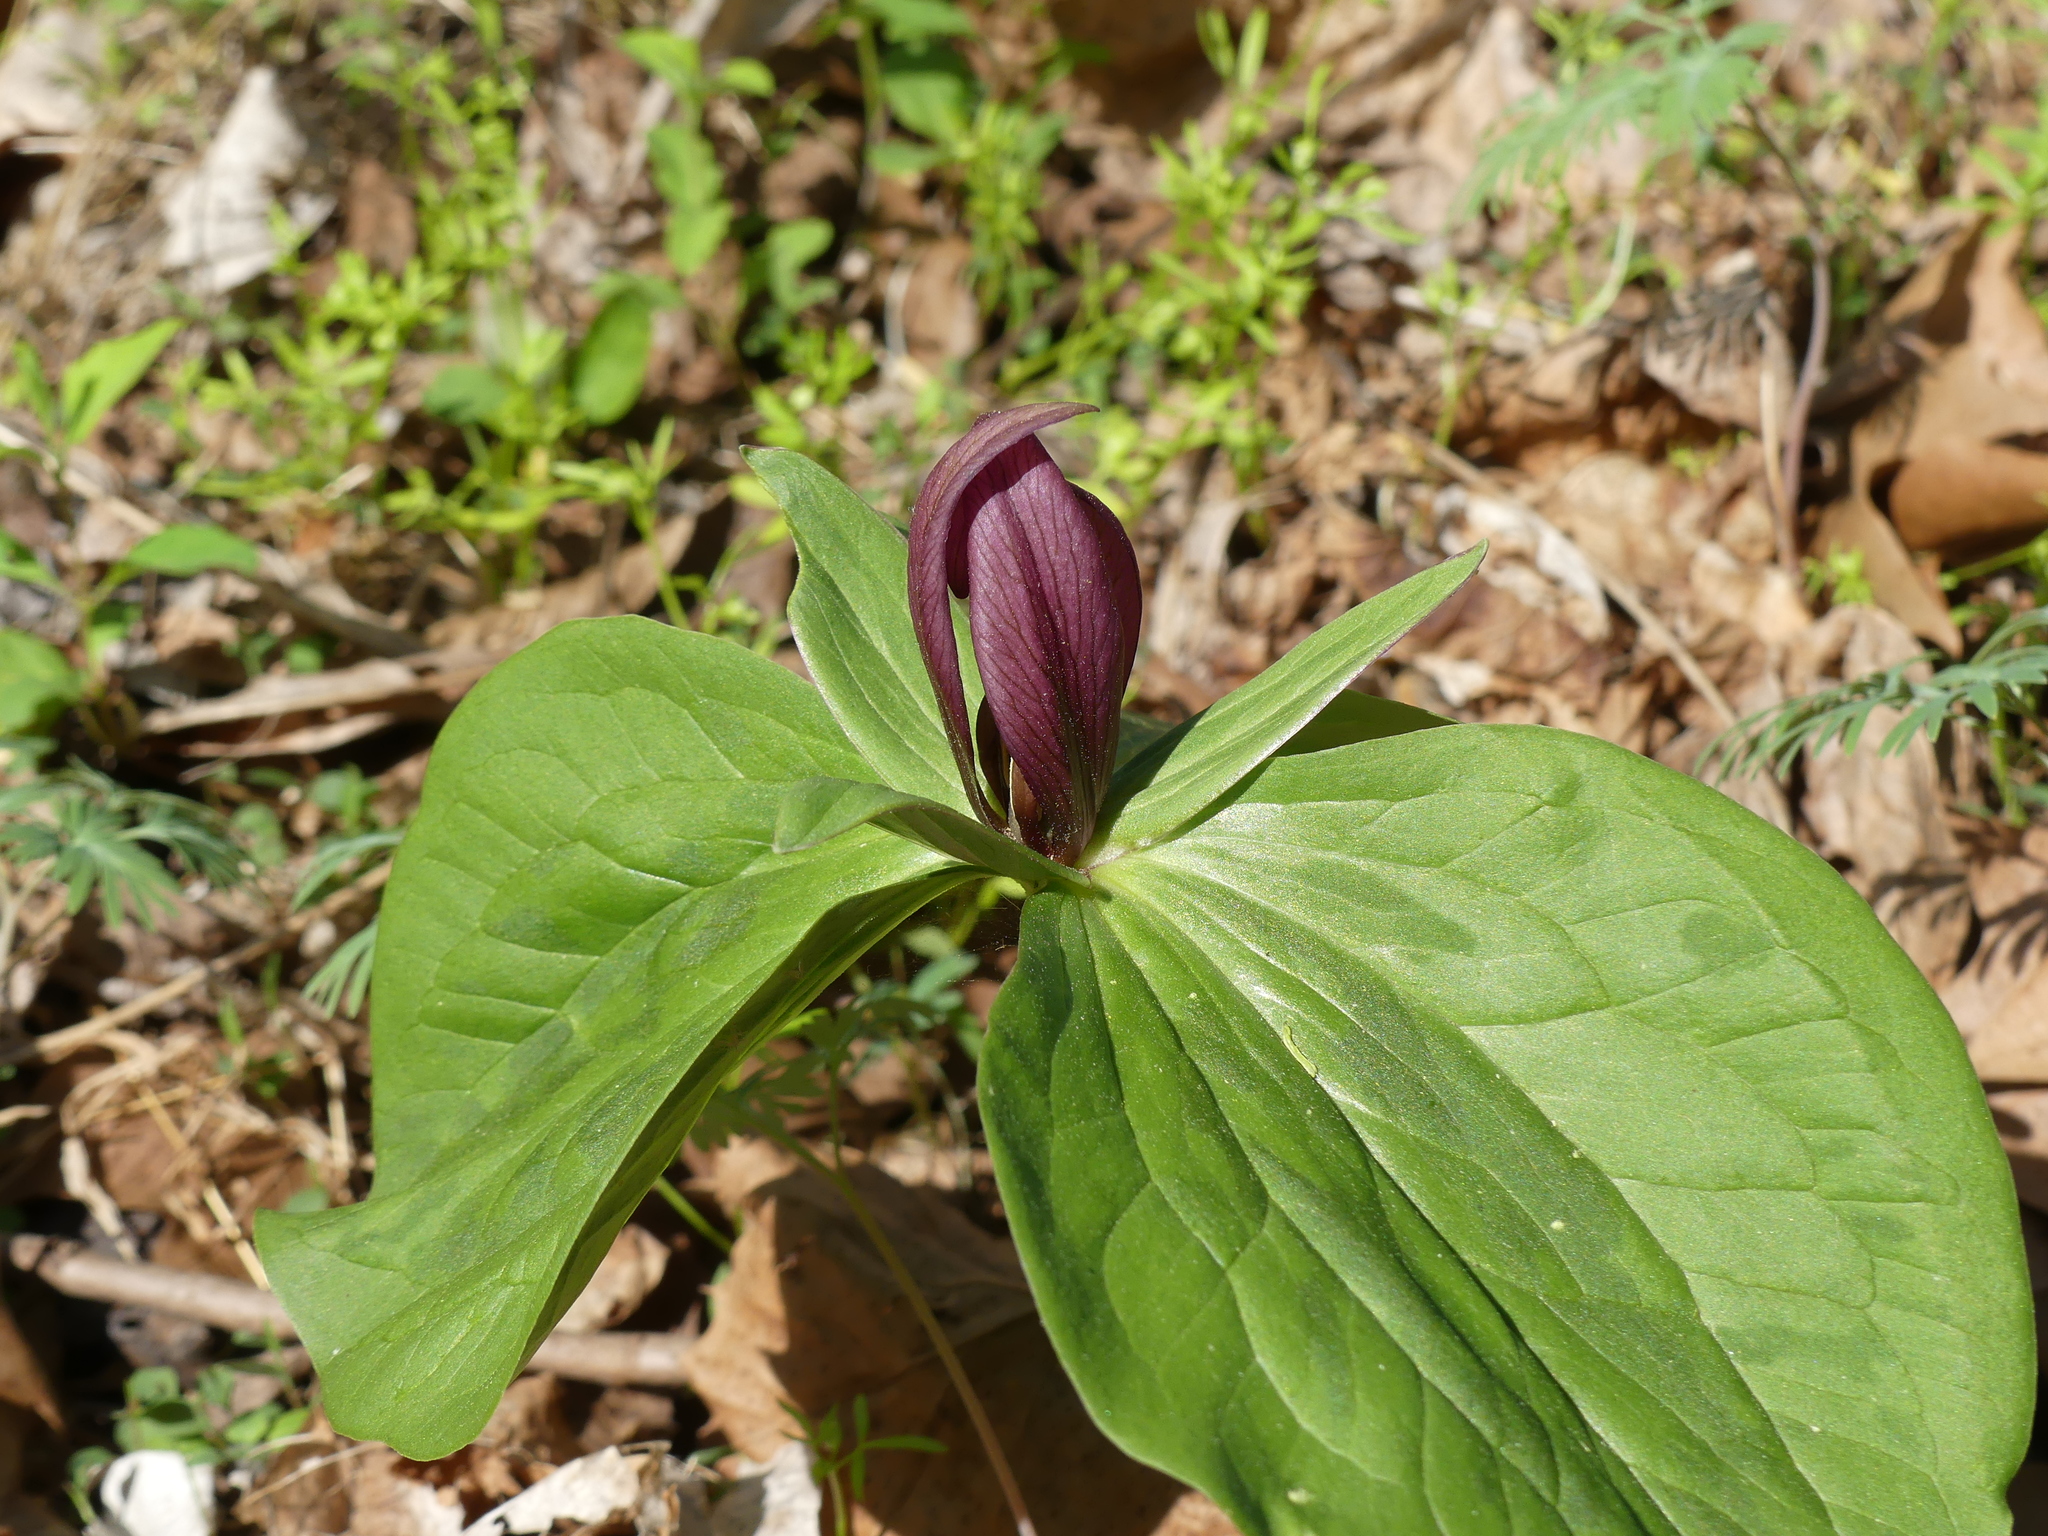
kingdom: Plantae
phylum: Tracheophyta
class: Liliopsida
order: Liliales
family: Melanthiaceae
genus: Trillium
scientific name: Trillium sessile
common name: Sessile trillium
